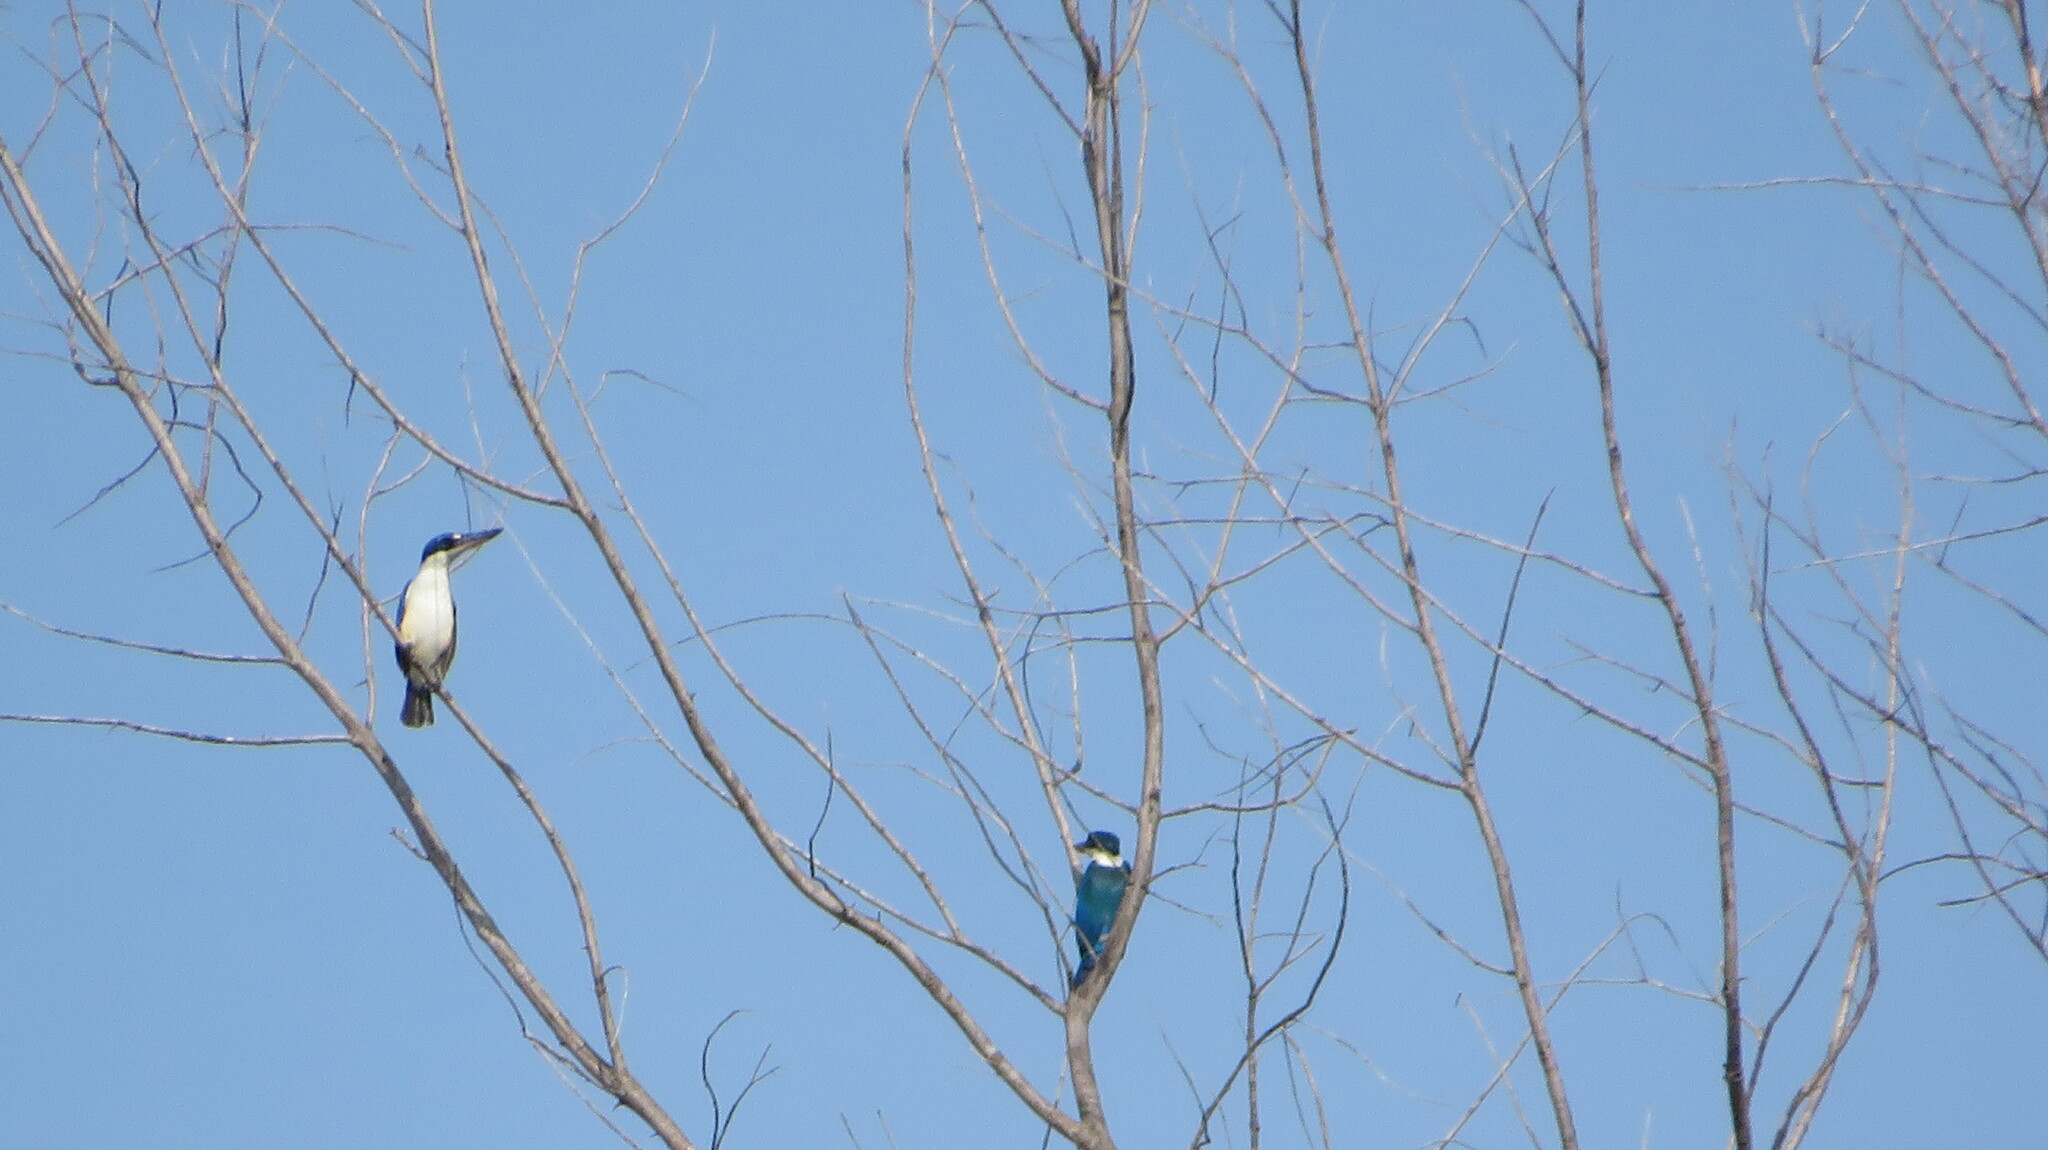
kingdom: Animalia
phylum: Chordata
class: Aves
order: Coraciiformes
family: Alcedinidae
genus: Todiramphus
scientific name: Todiramphus chloris
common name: Collared kingfisher
